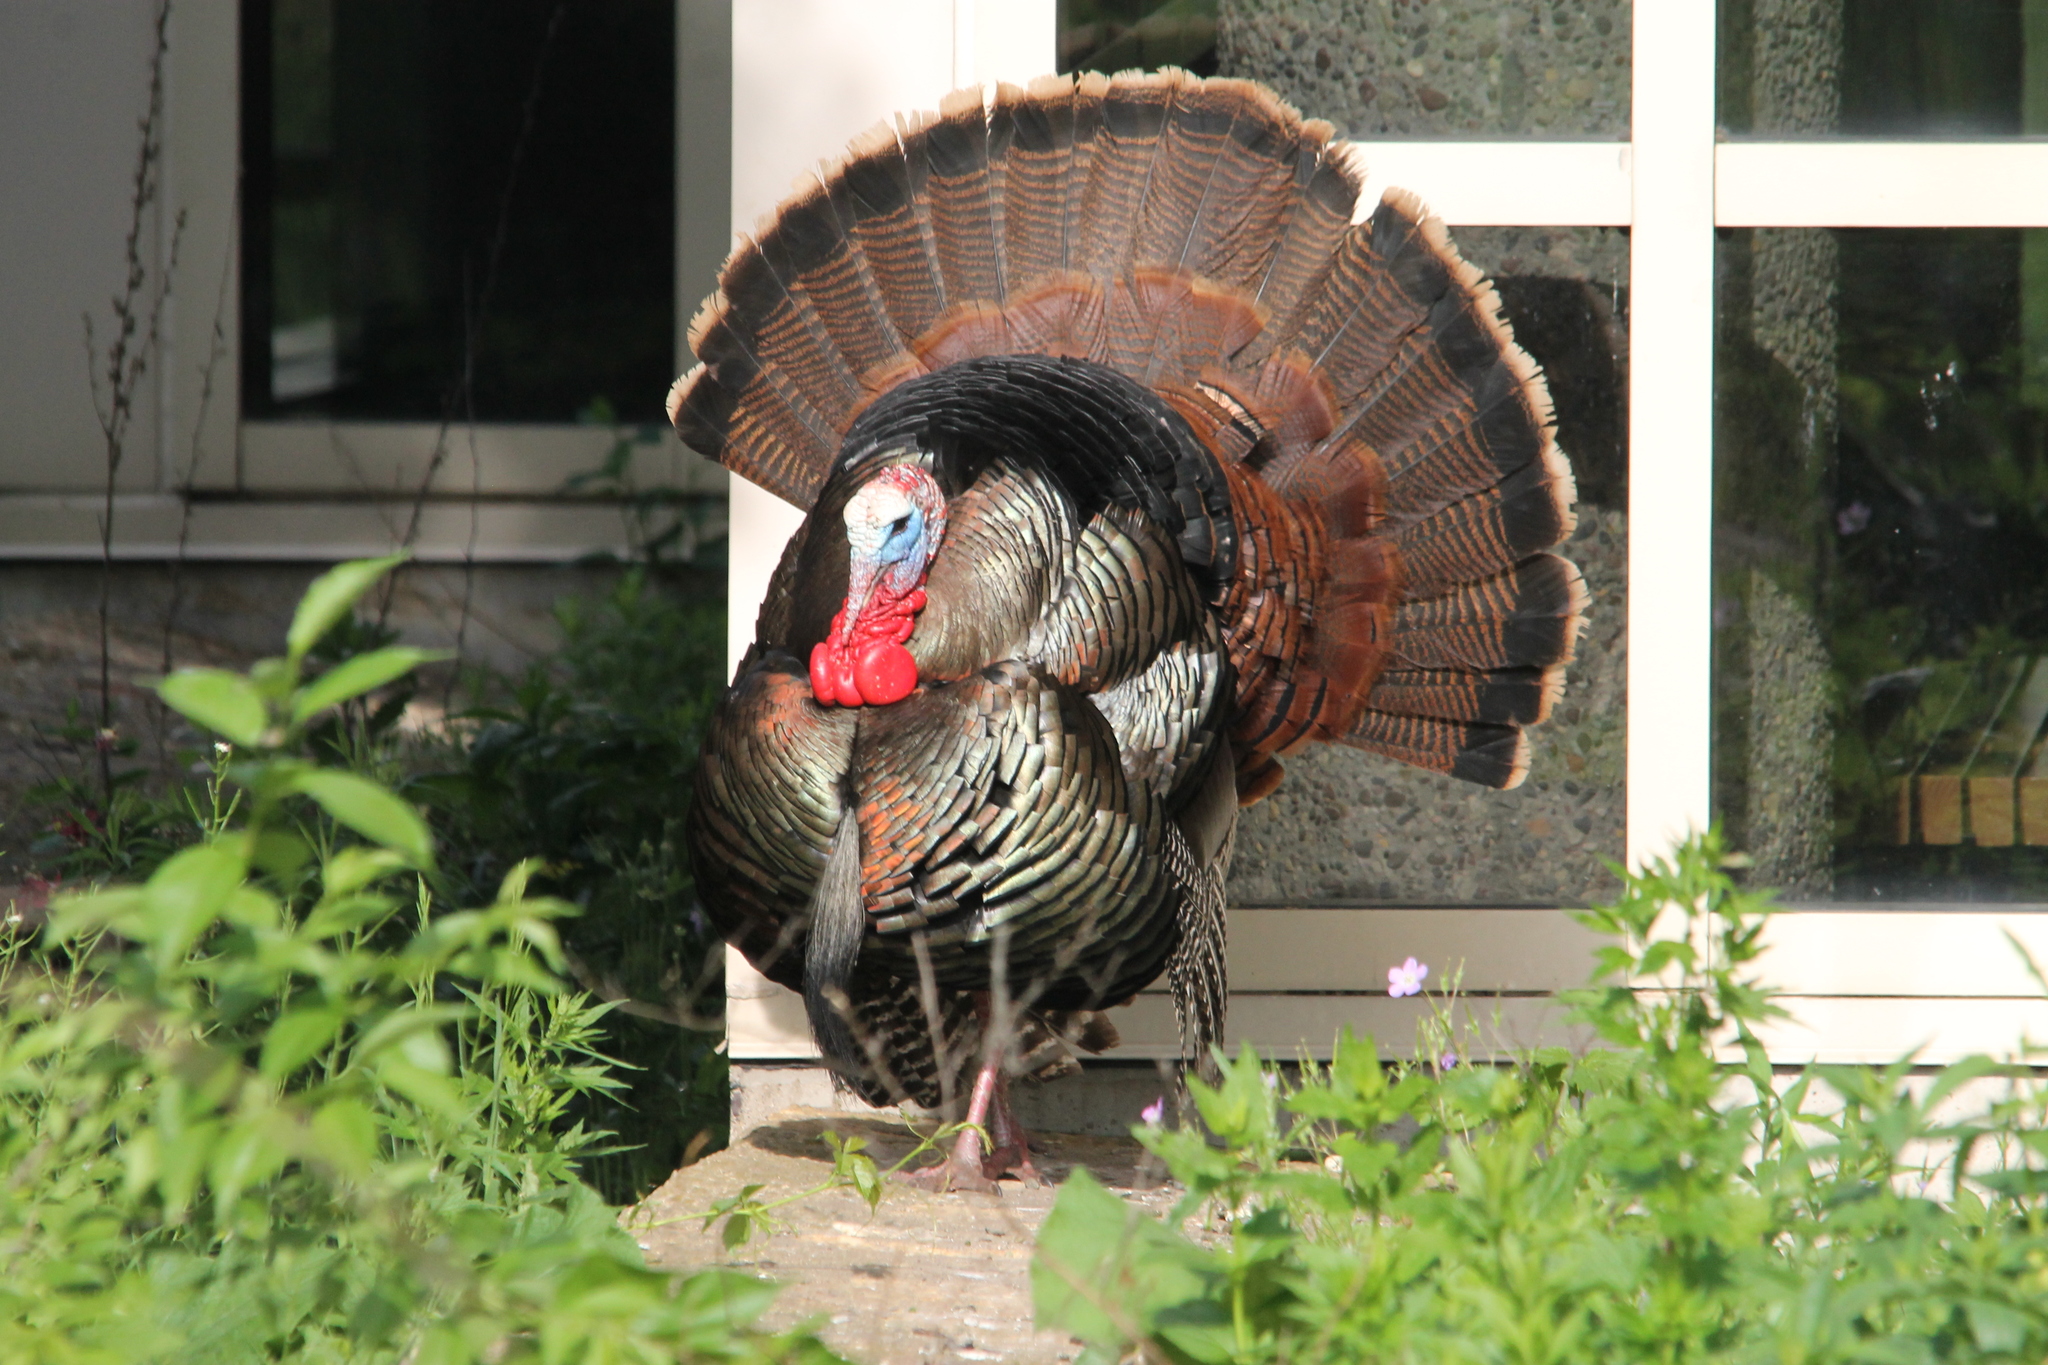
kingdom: Animalia
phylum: Chordata
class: Aves
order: Galliformes
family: Phasianidae
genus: Meleagris
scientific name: Meleagris gallopavo
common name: Wild turkey
